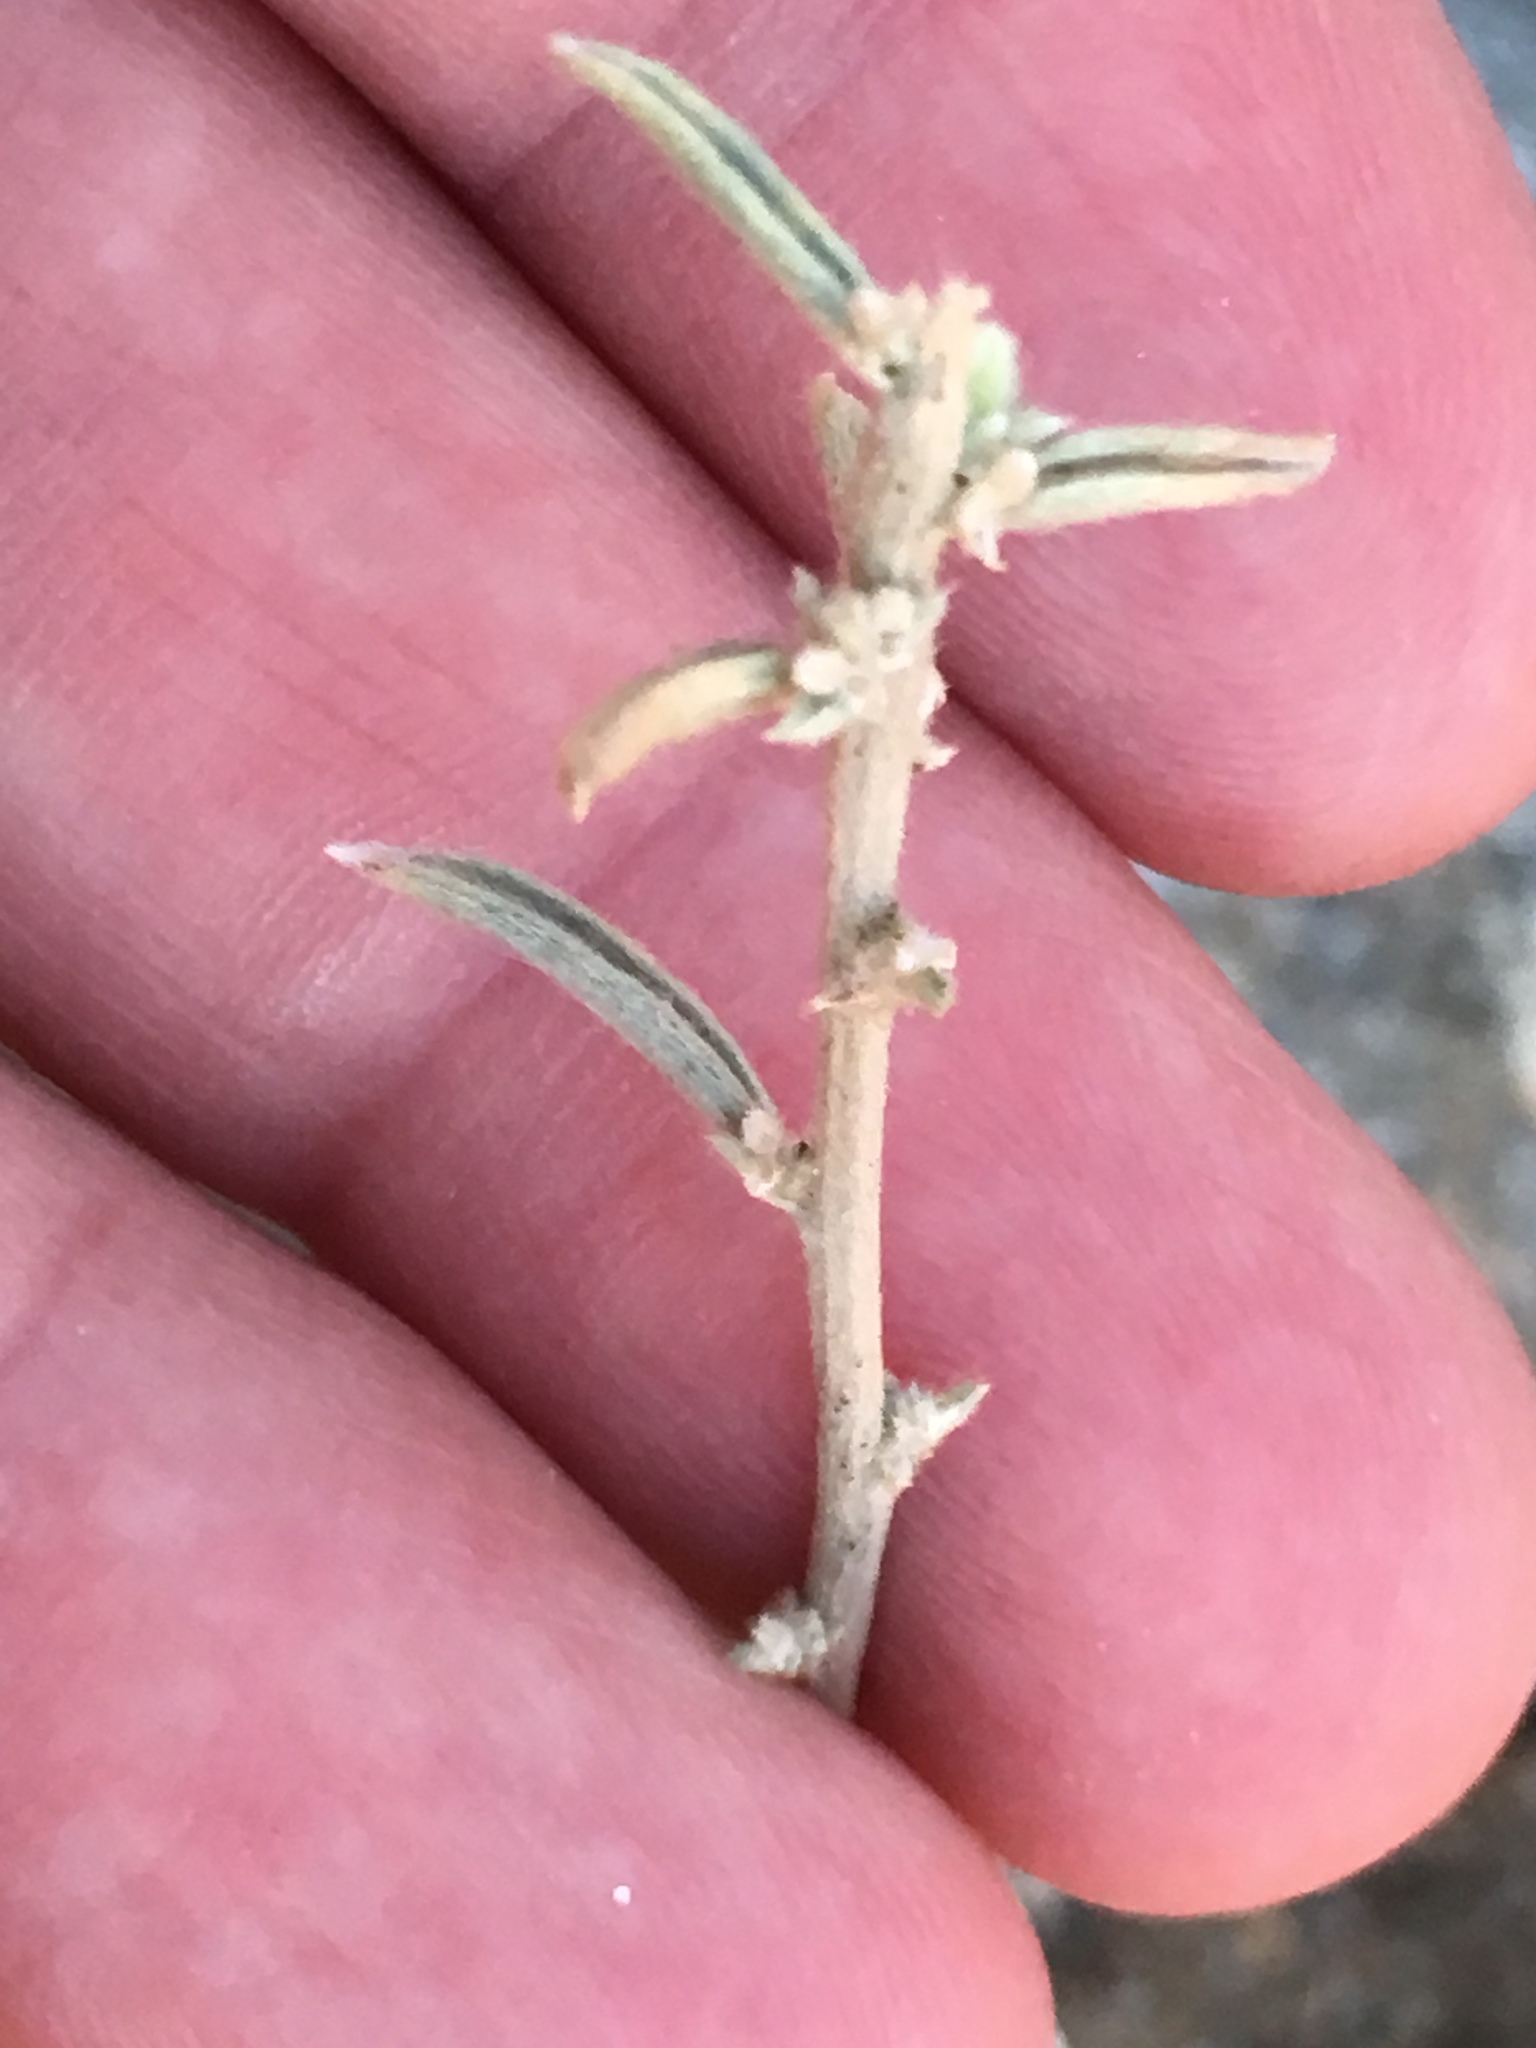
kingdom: Plantae
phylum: Tracheophyta
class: Magnoliopsida
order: Malpighiales
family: Euphorbiaceae
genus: Ditaxis
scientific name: Ditaxis lanceolata
